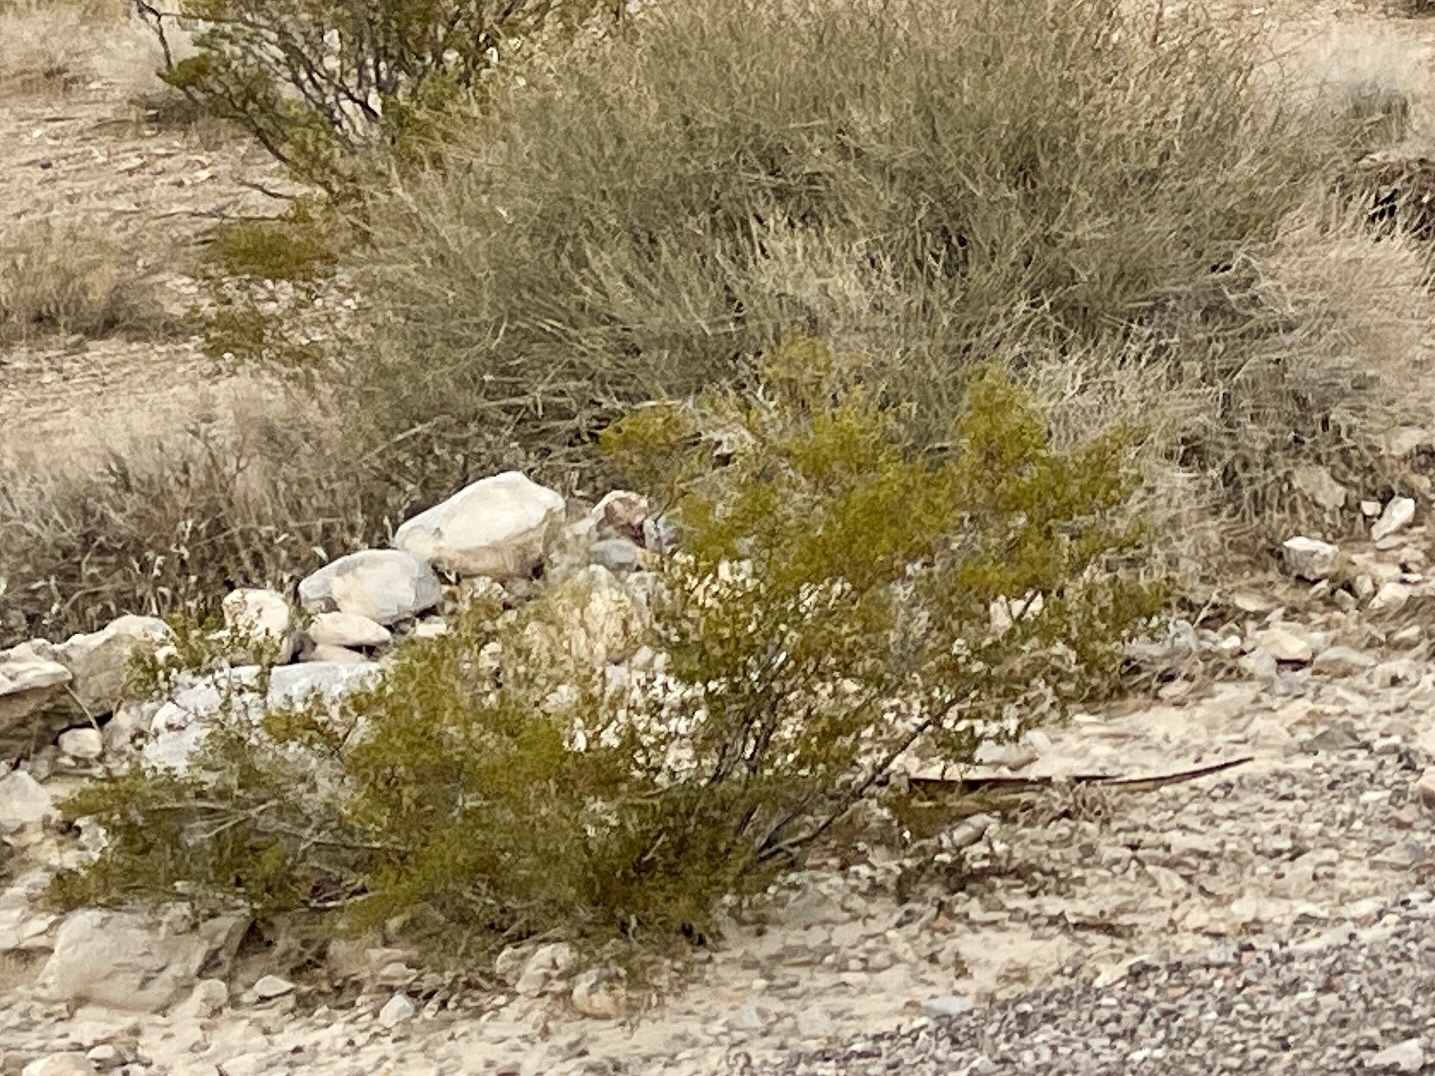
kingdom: Plantae
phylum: Tracheophyta
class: Magnoliopsida
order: Zygophyllales
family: Zygophyllaceae
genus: Larrea
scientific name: Larrea tridentata
